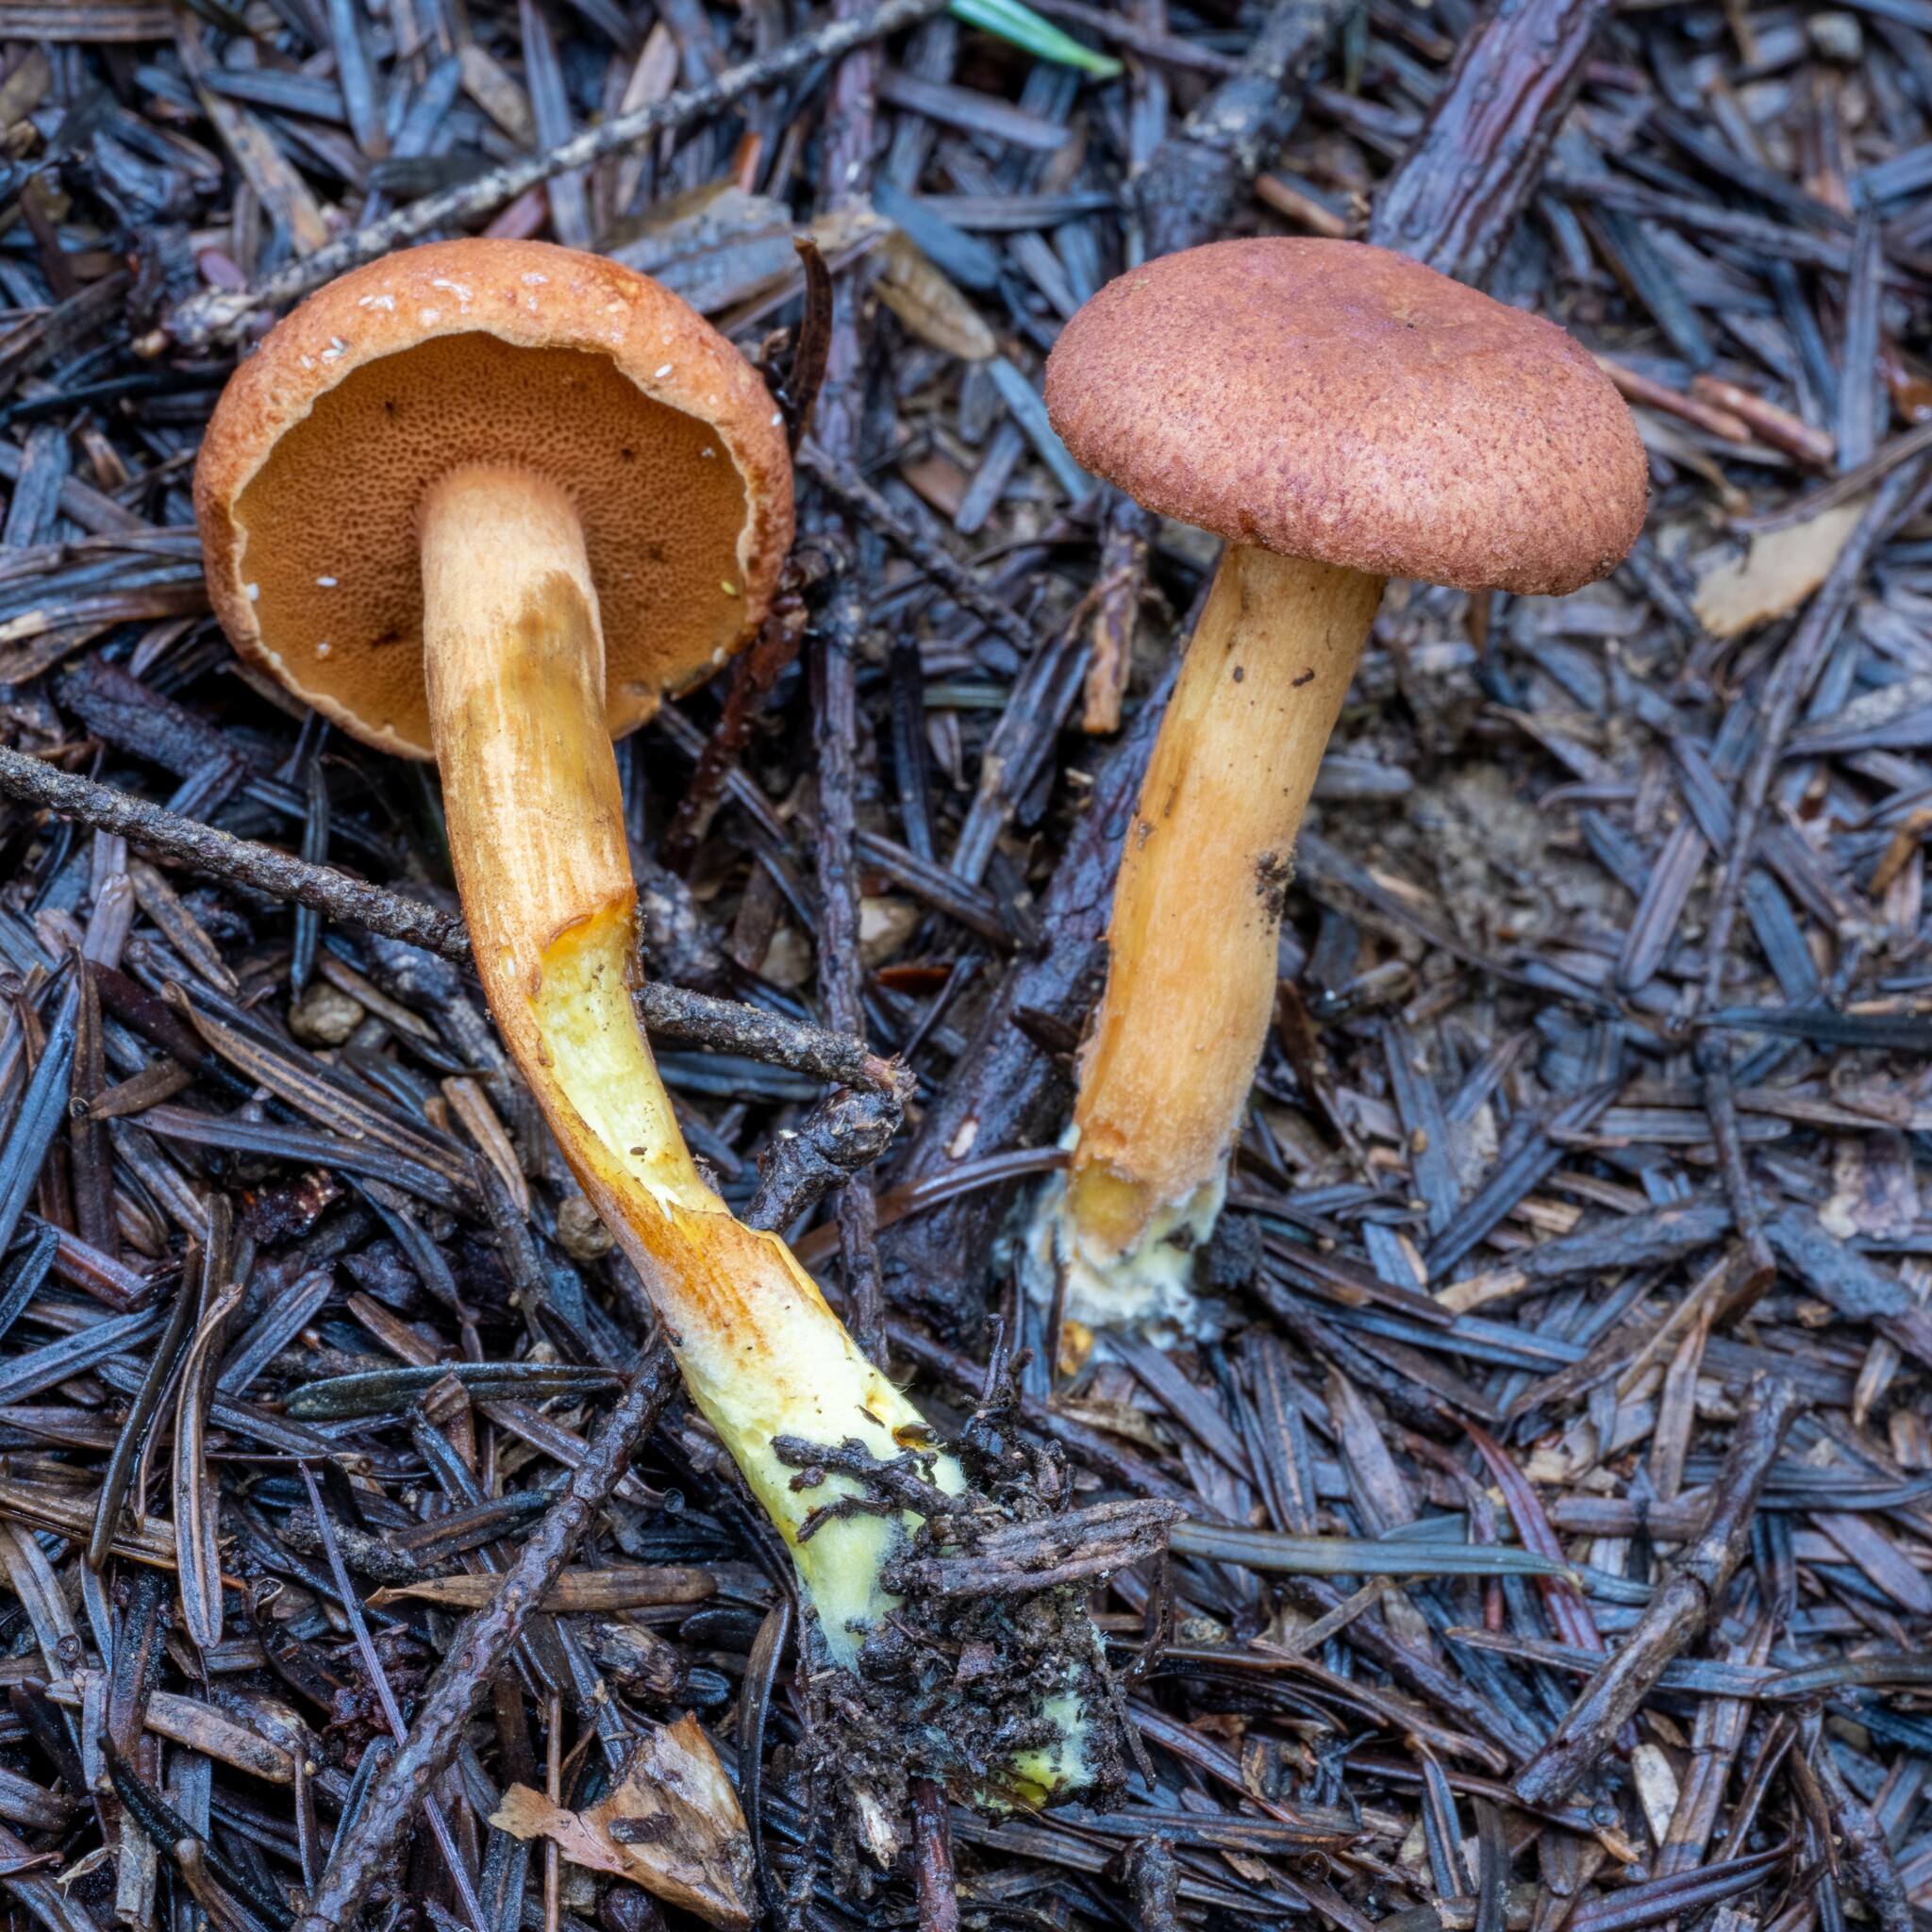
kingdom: Fungi
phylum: Basidiomycota
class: Agaricomycetes
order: Boletales
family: Boletaceae
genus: Chalciporus
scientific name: Chalciporus piperatus
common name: Peppery bolete
